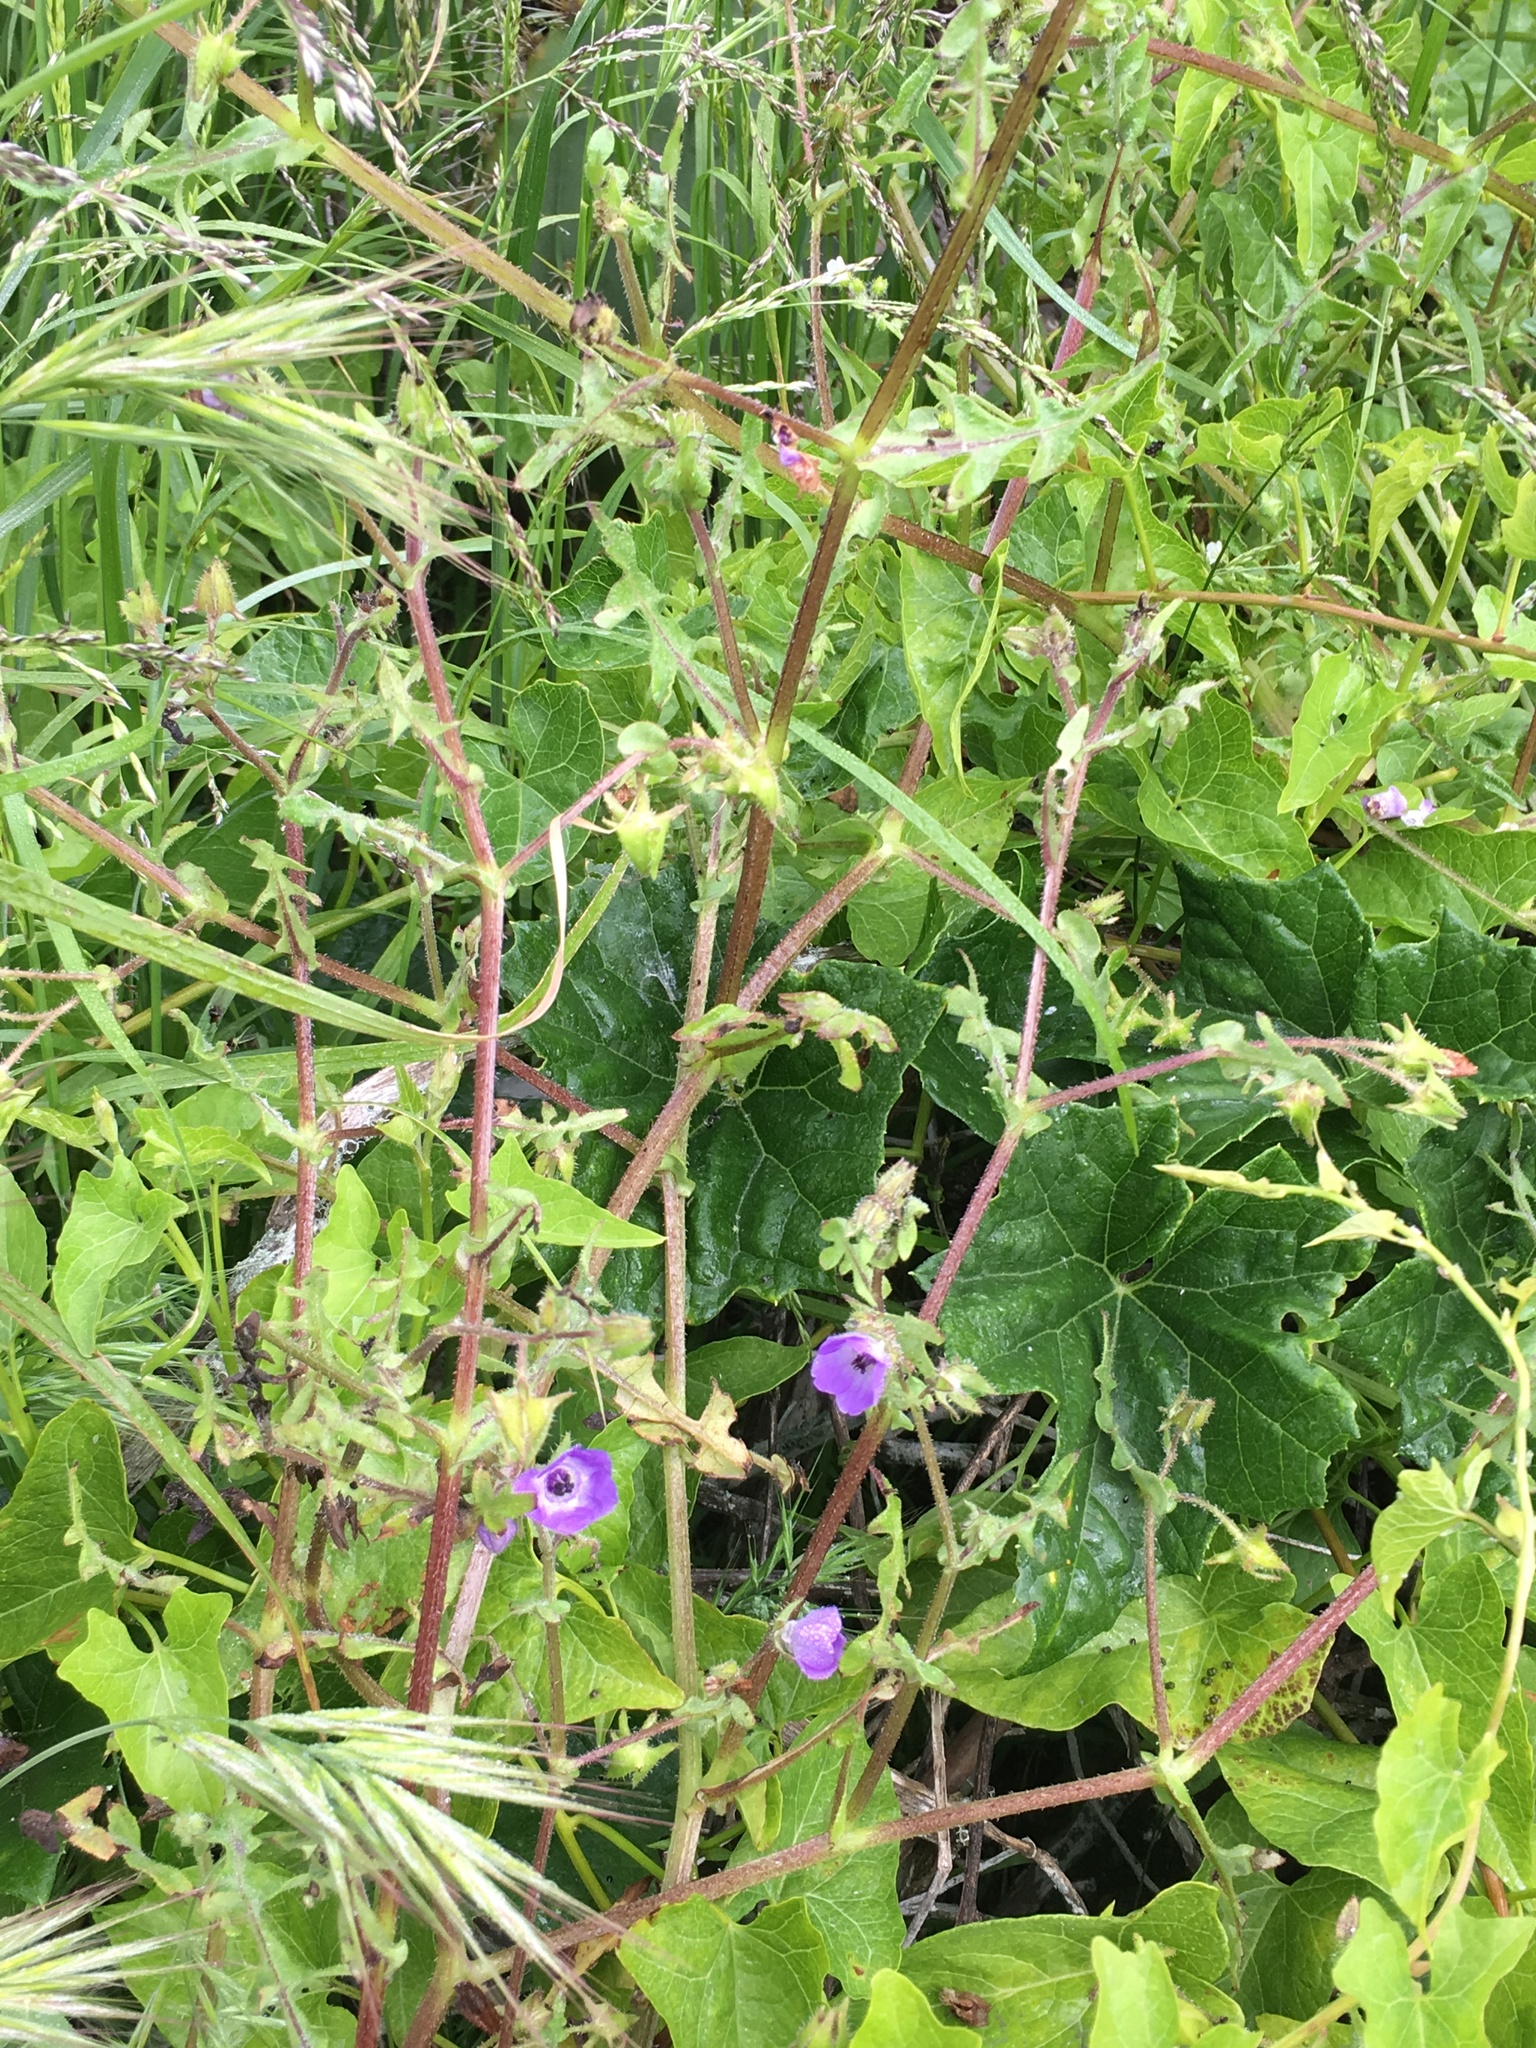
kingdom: Plantae
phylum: Tracheophyta
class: Magnoliopsida
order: Boraginales
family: Hydrophyllaceae
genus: Pholistoma
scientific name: Pholistoma auritum
